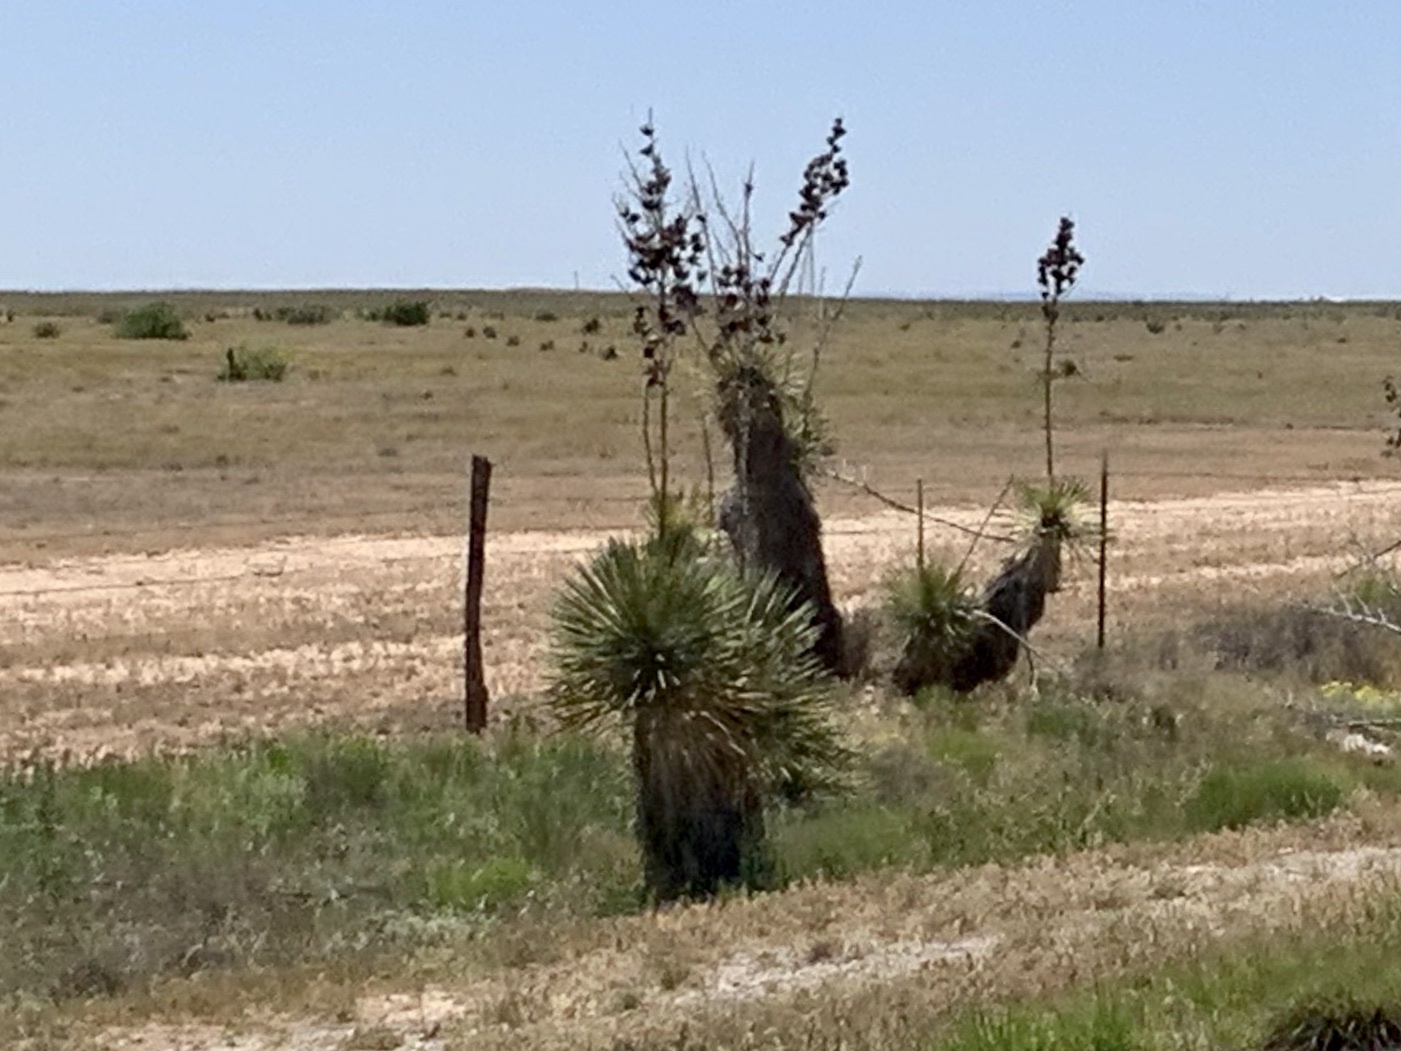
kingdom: Plantae
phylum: Tracheophyta
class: Liliopsida
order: Asparagales
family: Asparagaceae
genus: Yucca
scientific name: Yucca elata
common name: Palmella
